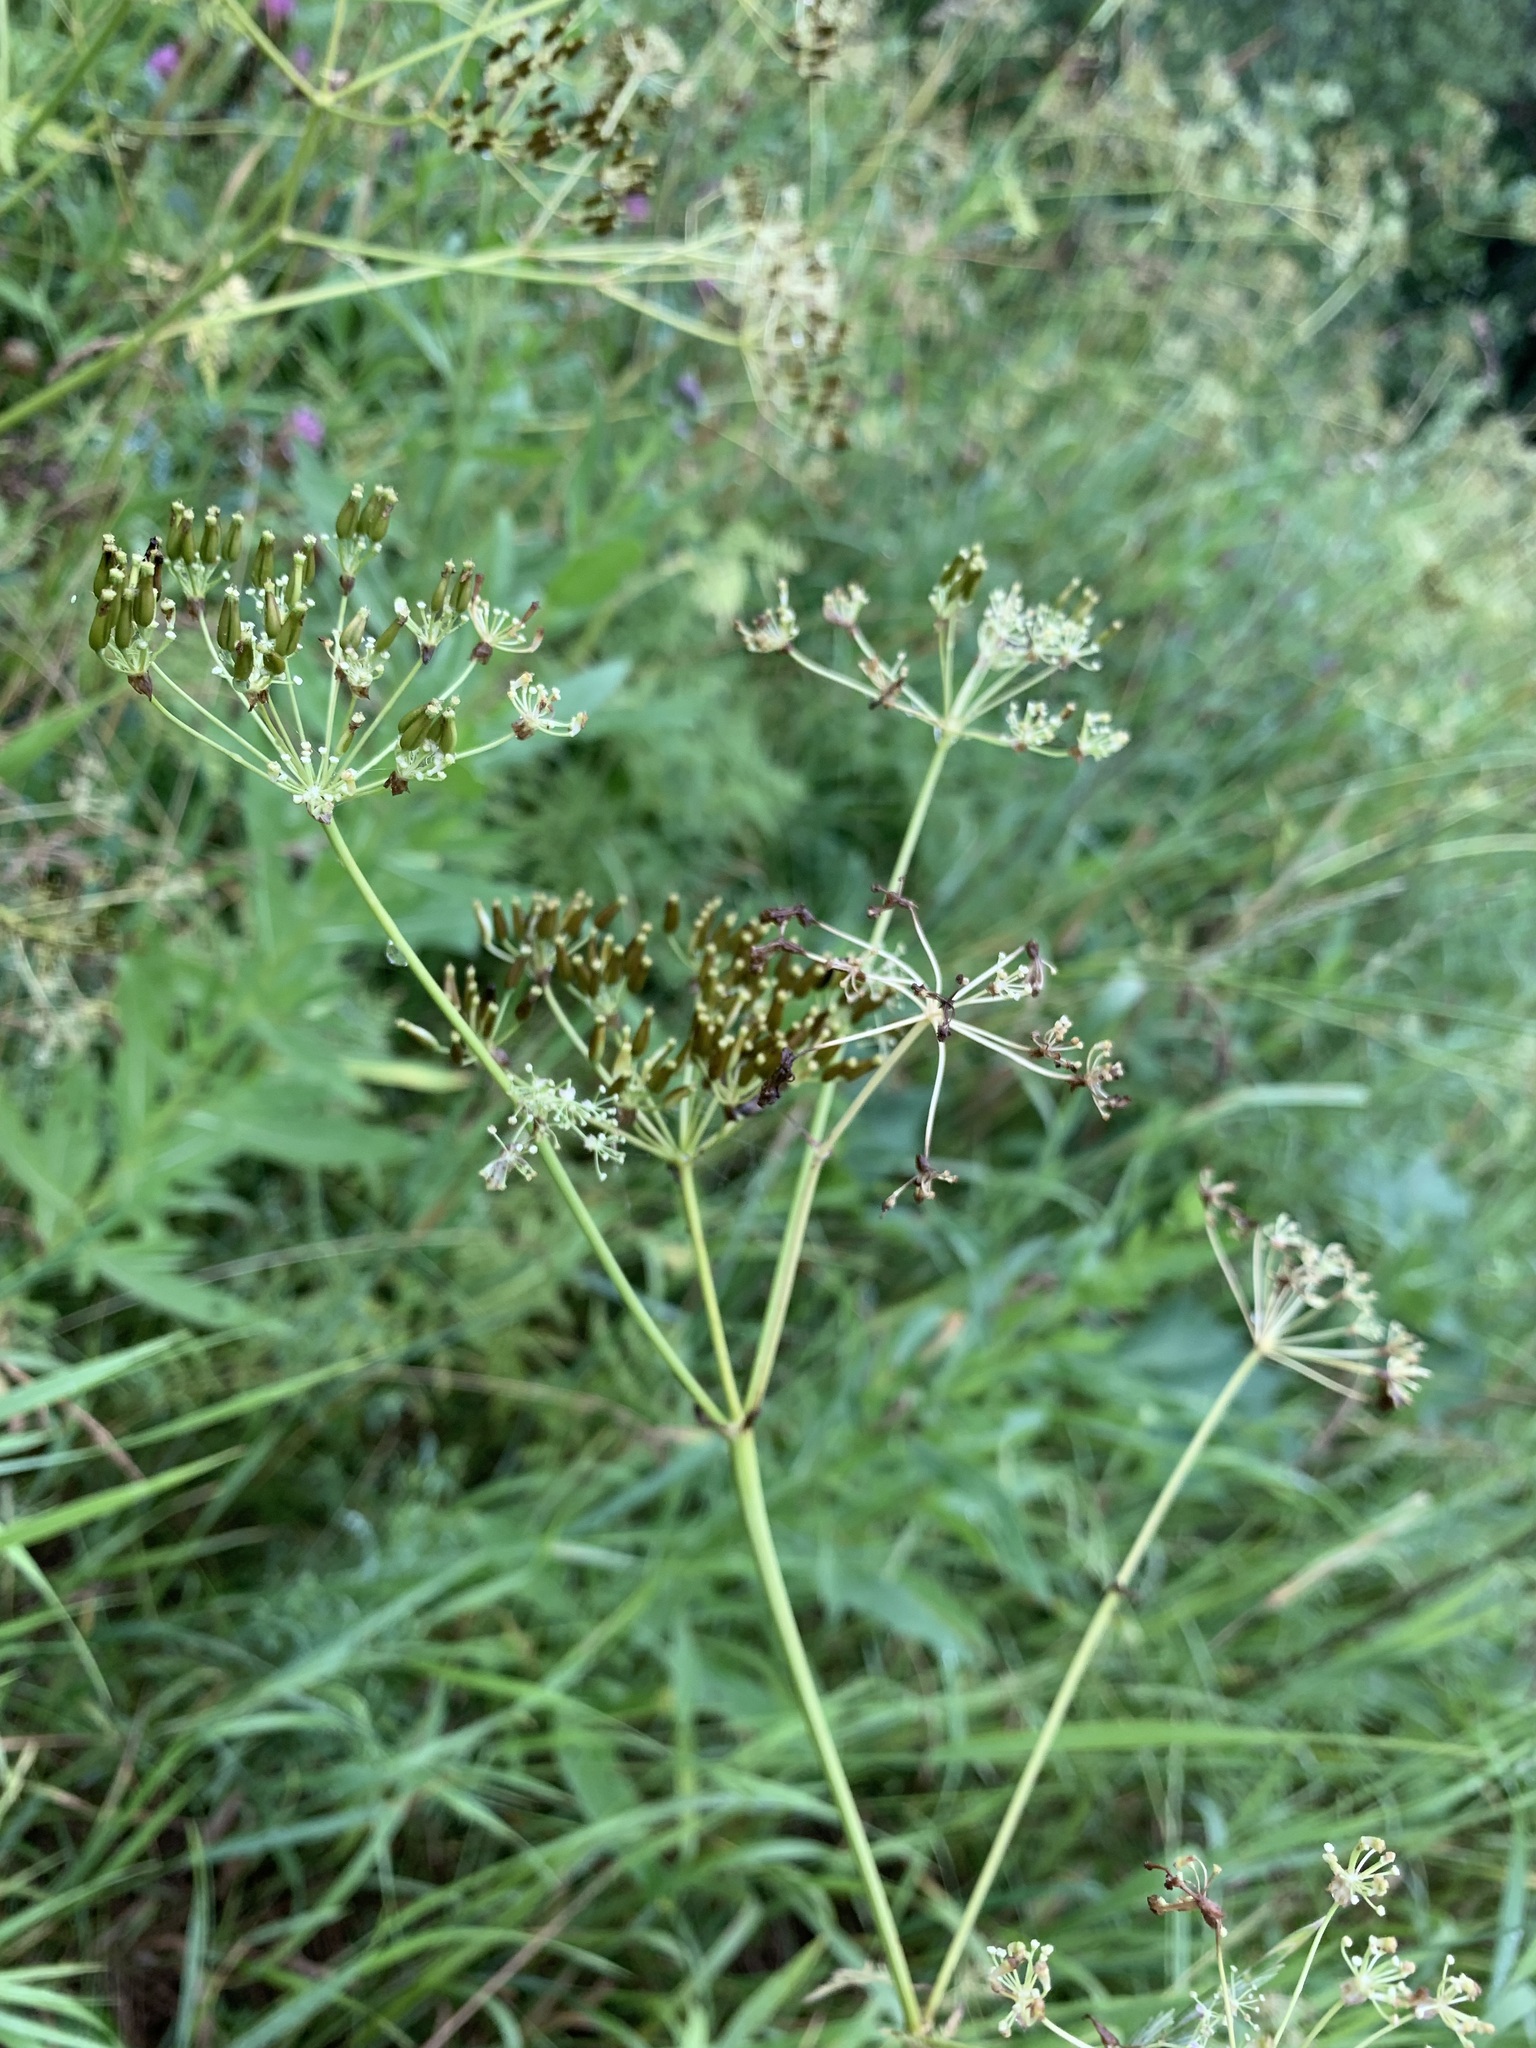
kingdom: Plantae
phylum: Tracheophyta
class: Magnoliopsida
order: Apiales
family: Apiaceae
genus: Anthriscus
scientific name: Anthriscus sylvestris
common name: Cow parsley
